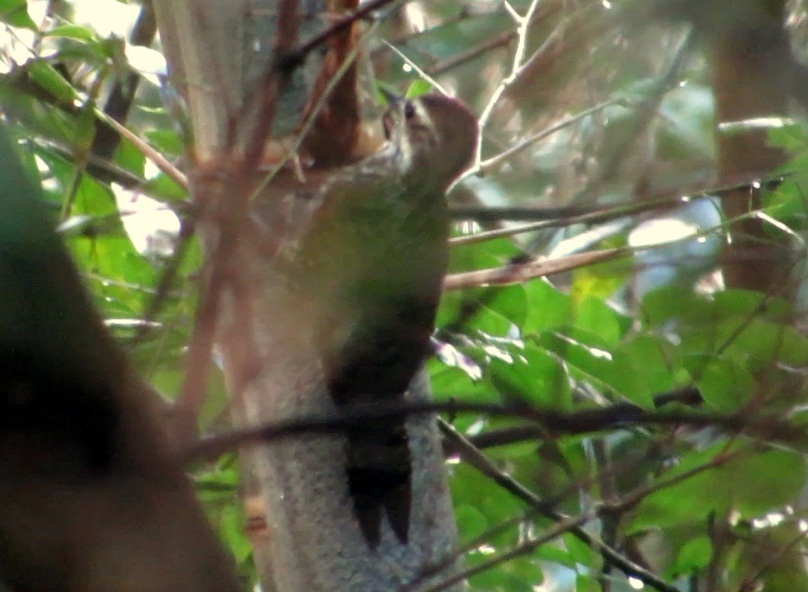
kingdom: Animalia
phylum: Chordata
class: Aves
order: Piciformes
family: Picidae
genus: Veniliornis
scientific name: Veniliornis spilogaster
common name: White-spotted woodpecker
